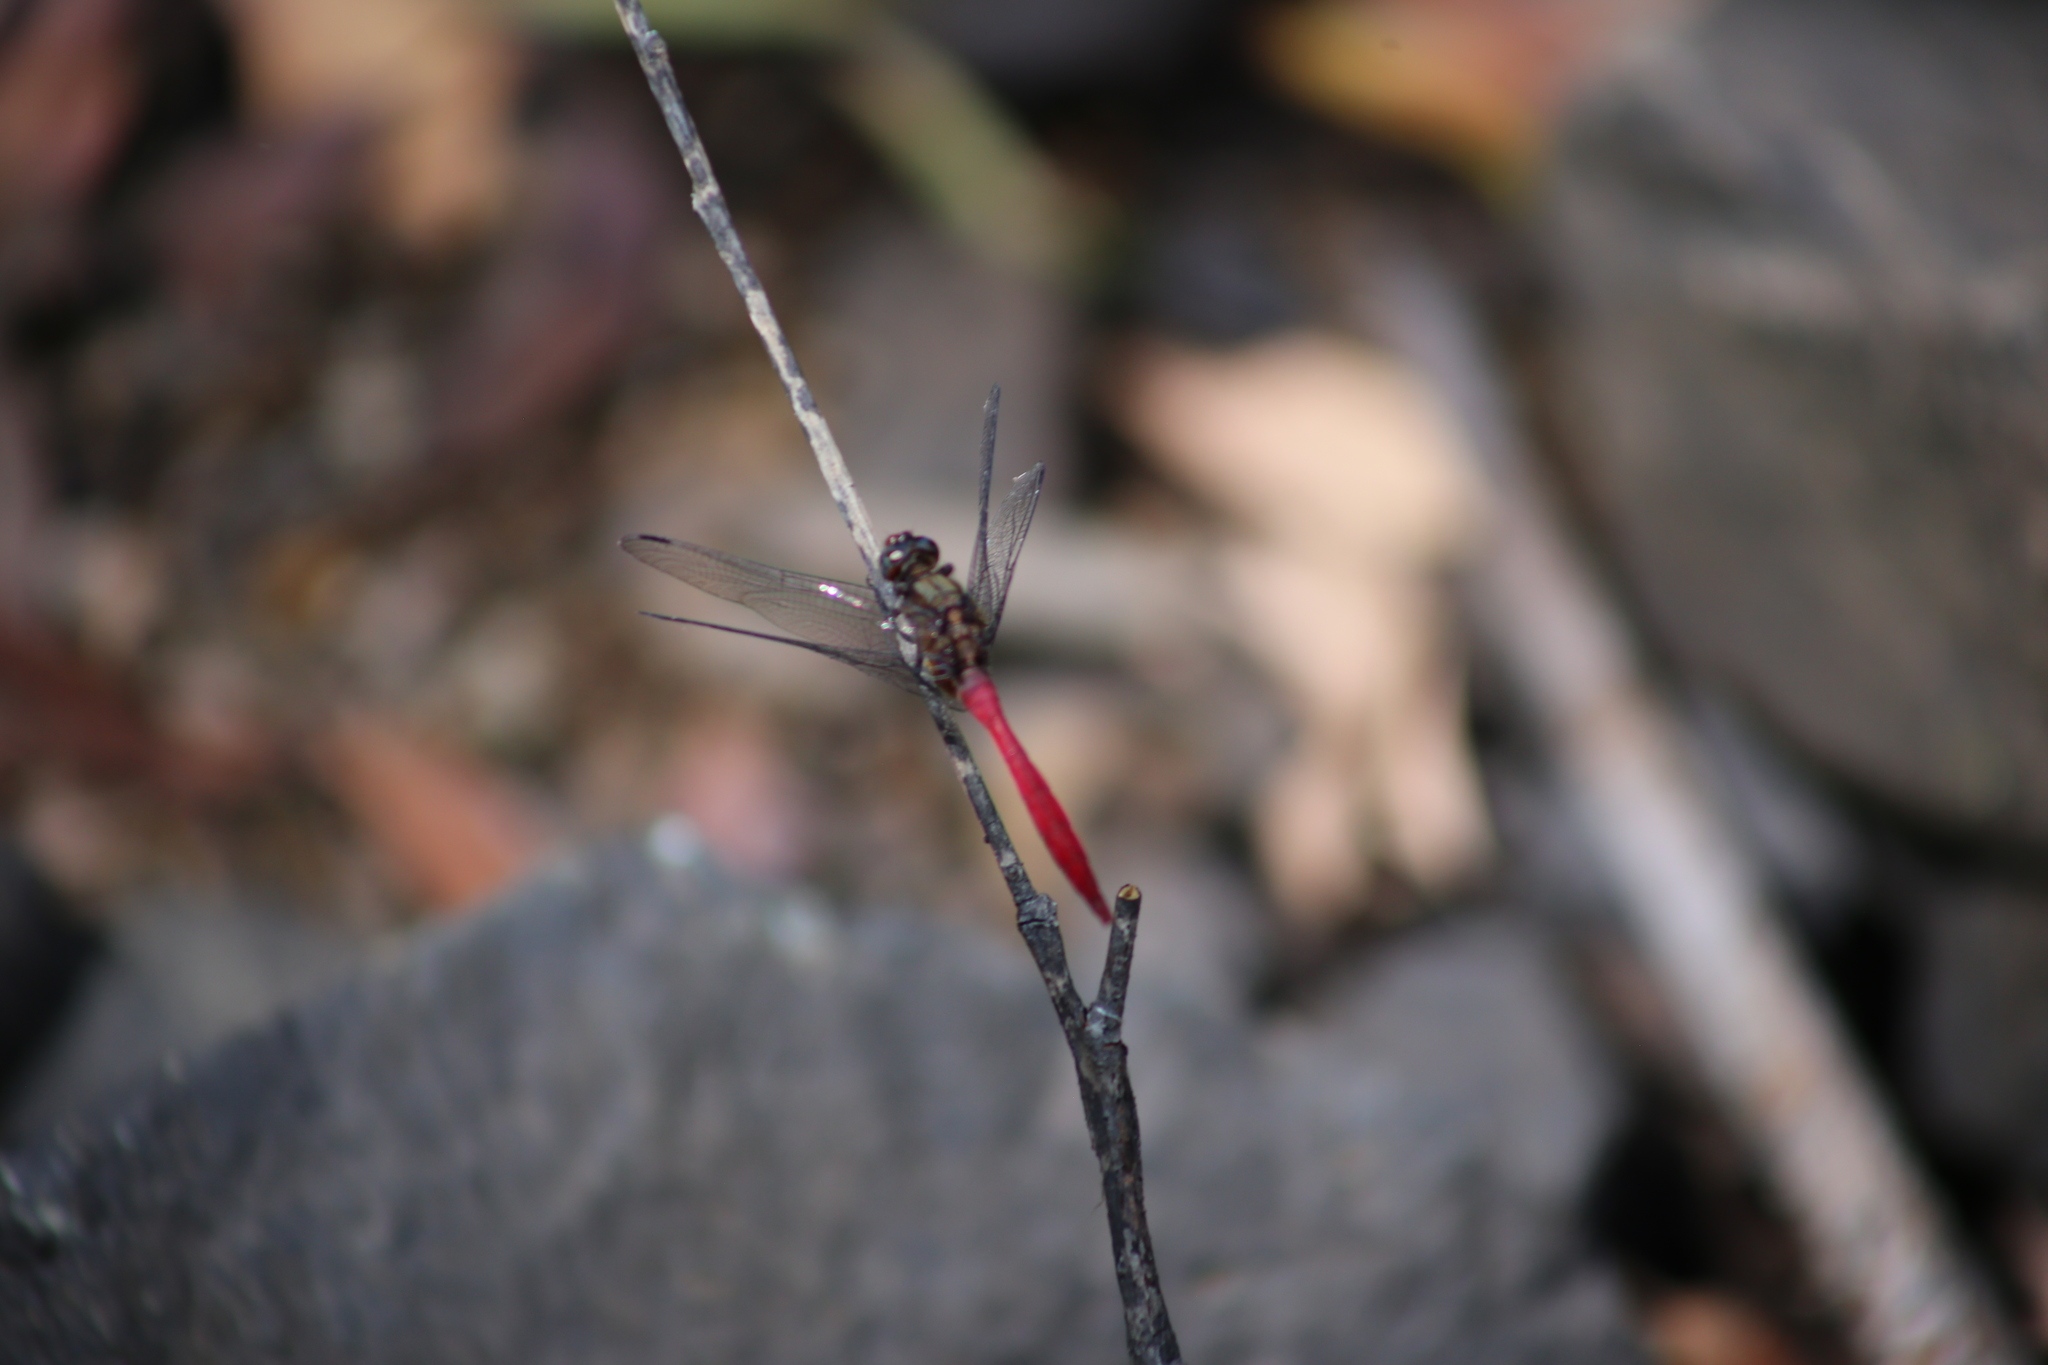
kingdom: Animalia
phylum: Arthropoda
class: Insecta
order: Odonata
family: Libellulidae
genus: Orthetrum
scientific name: Orthetrum villosovittatum
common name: Firery skimmer
